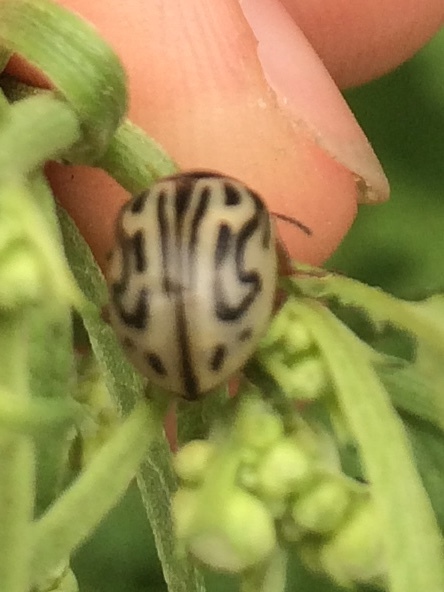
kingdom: Animalia
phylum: Arthropoda
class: Insecta
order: Coleoptera
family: Chrysomelidae
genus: Calligrapha
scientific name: Calligrapha
